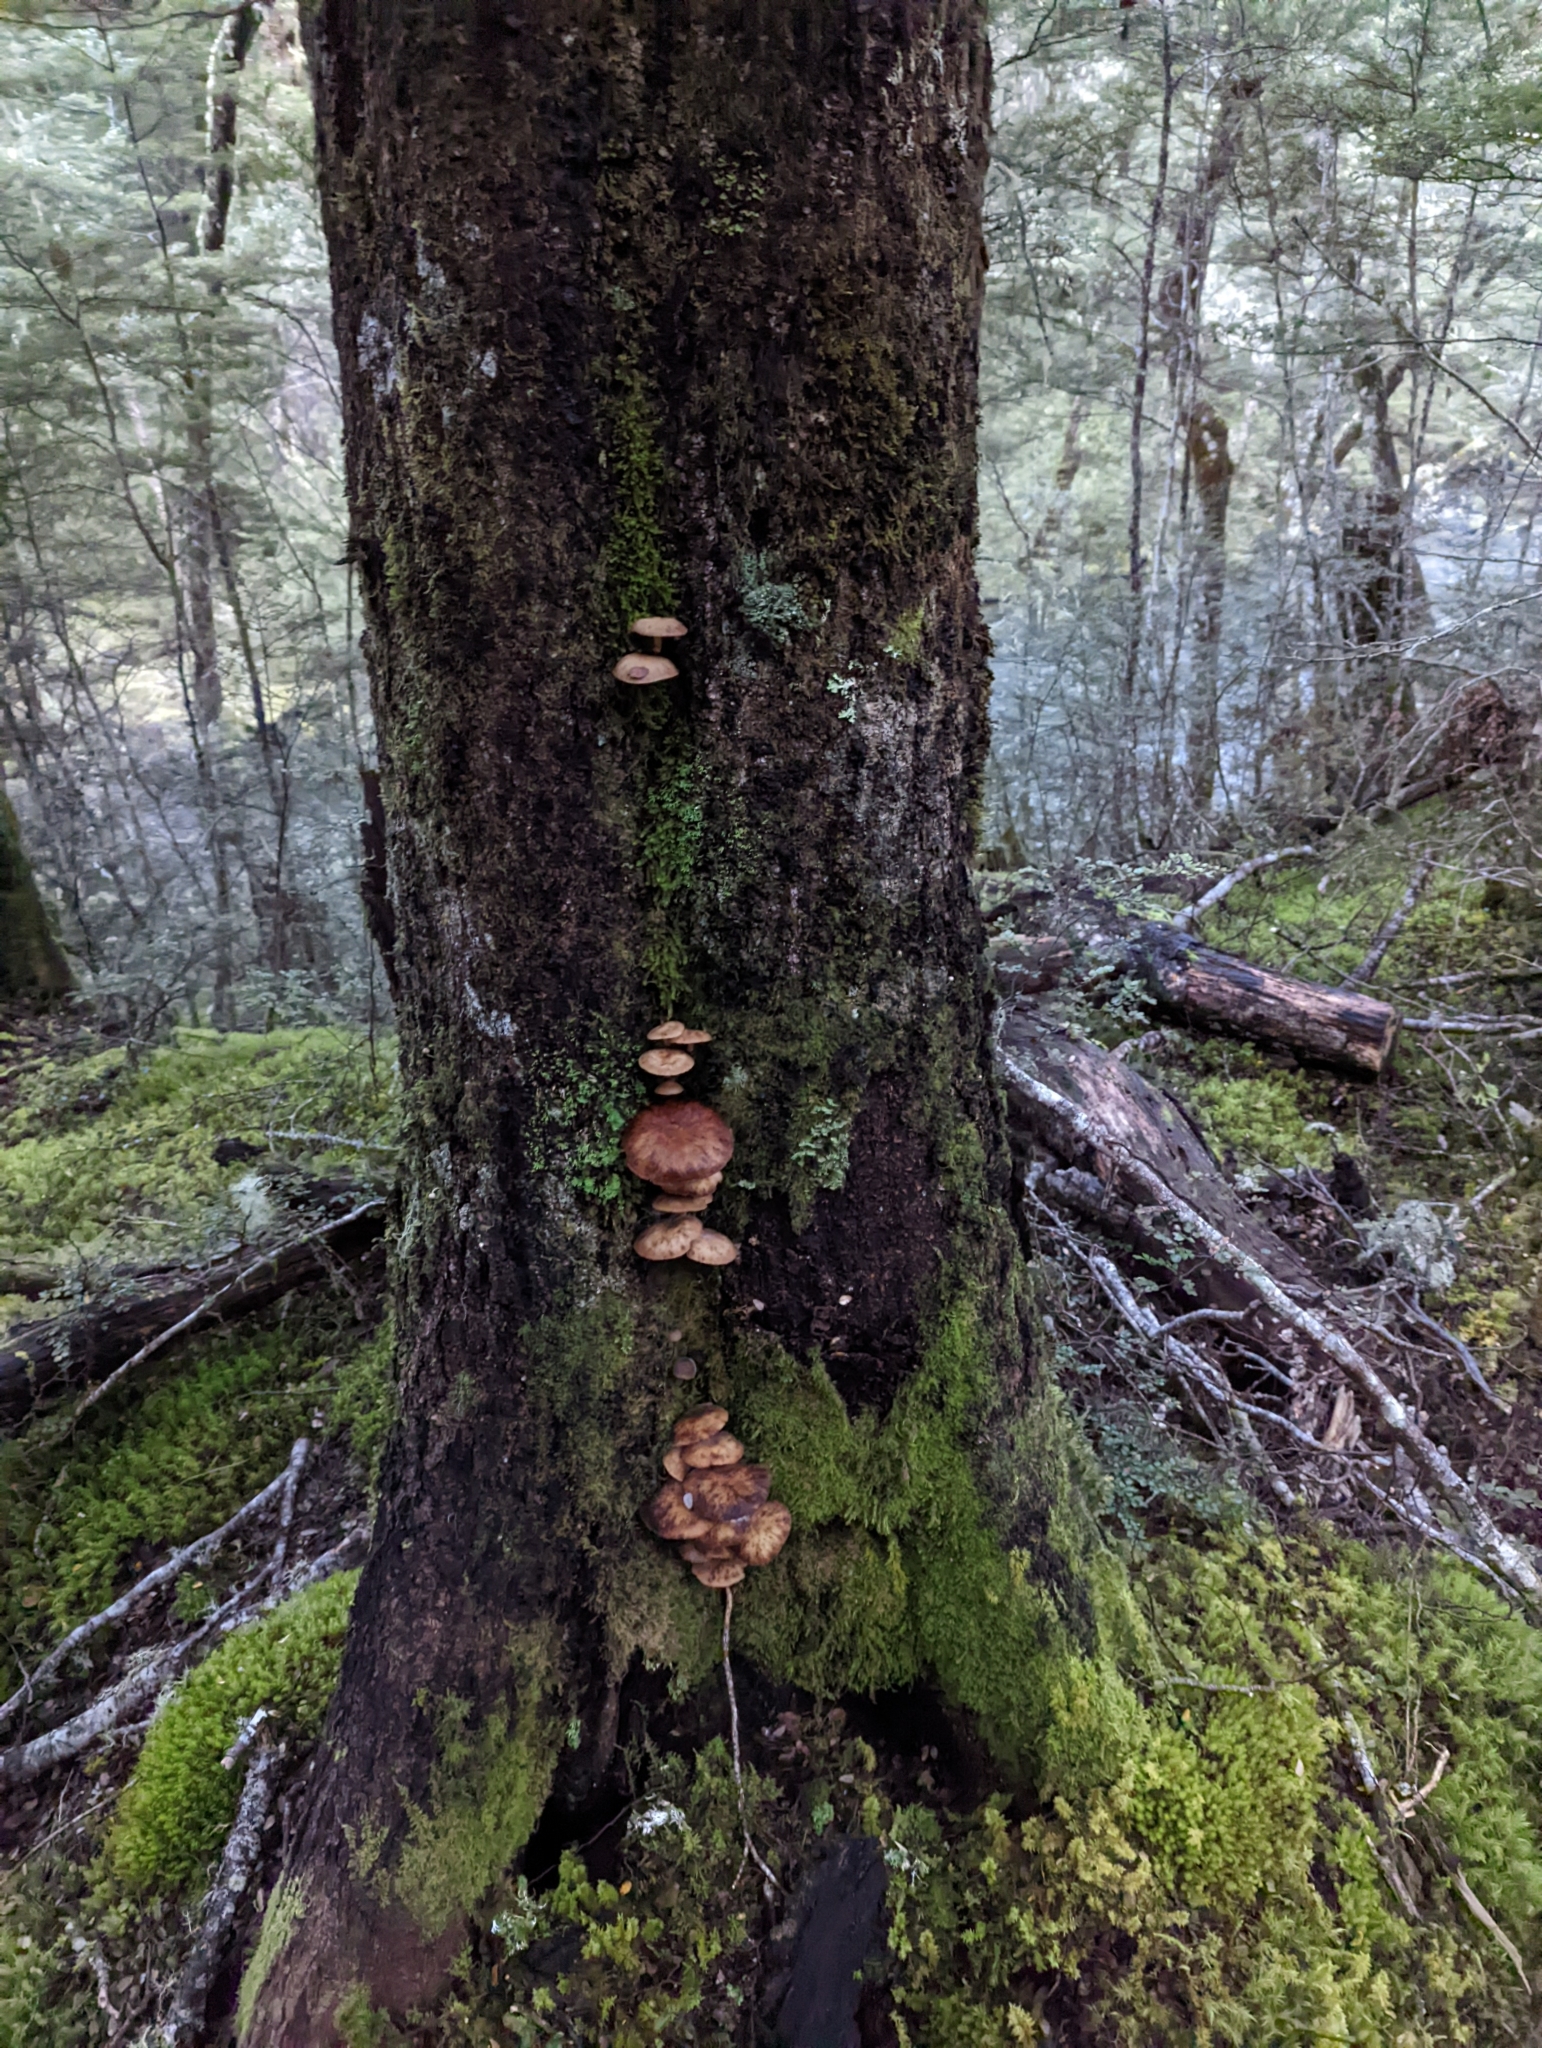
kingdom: Fungi
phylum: Basidiomycota
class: Agaricomycetes
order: Agaricales
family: Physalacriaceae
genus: Armillaria
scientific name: Armillaria novae-zelandiae
